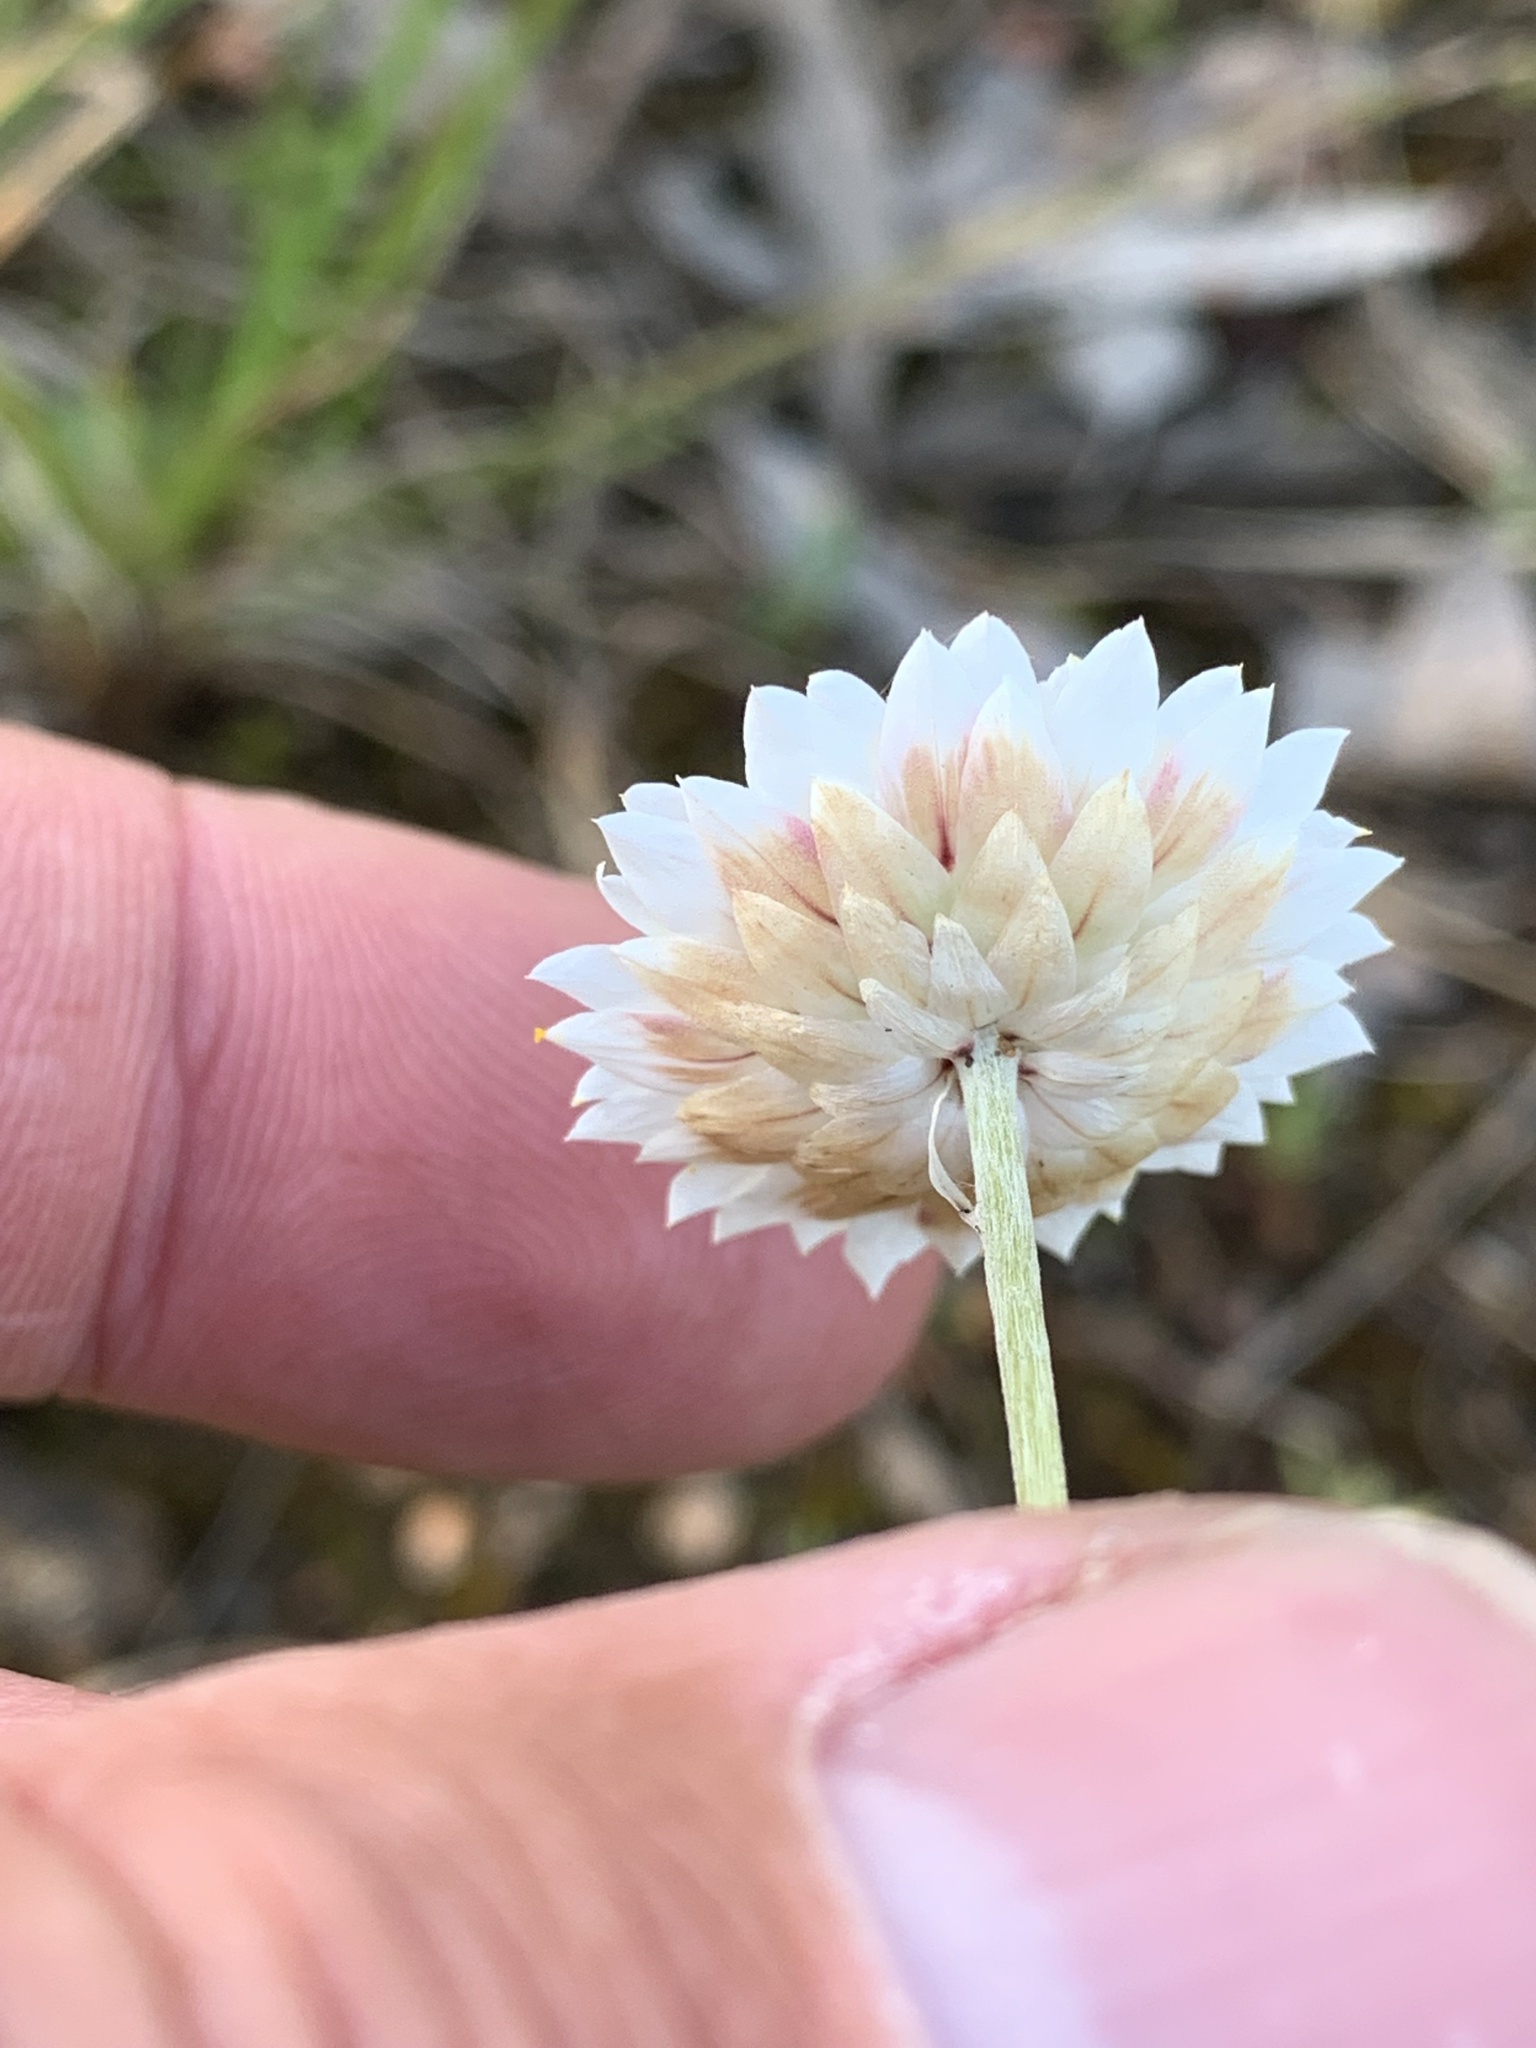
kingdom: Plantae
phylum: Tracheophyta
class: Magnoliopsida
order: Asterales
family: Asteraceae
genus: Leucochrysum
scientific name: Leucochrysum albicans
